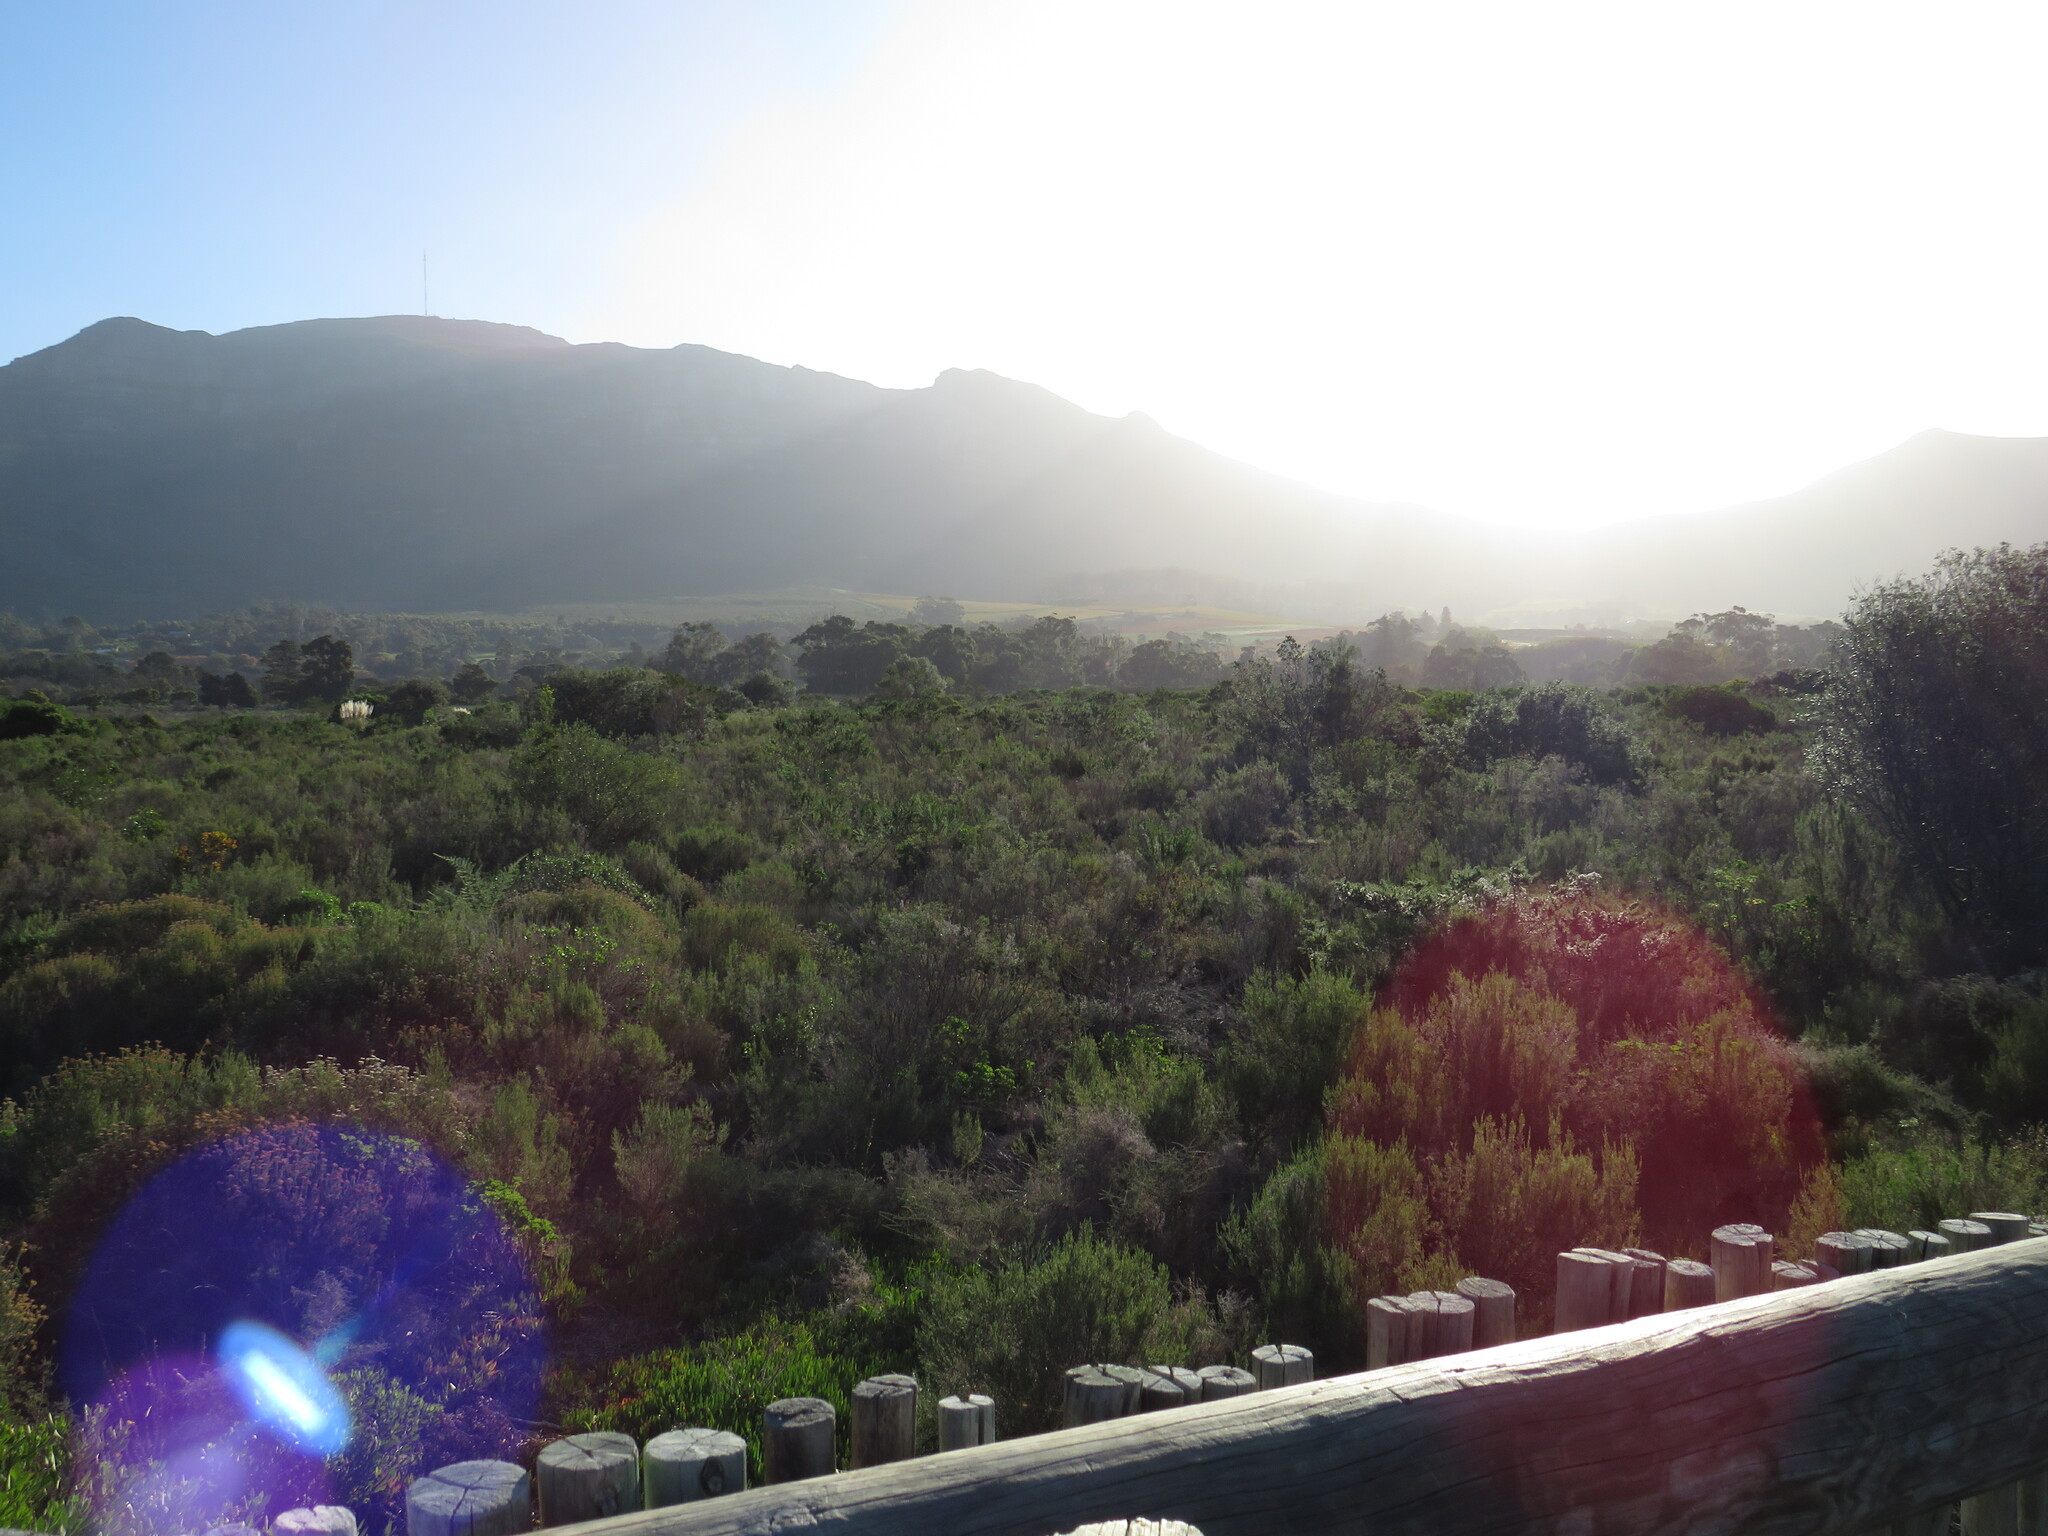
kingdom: Plantae
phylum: Tracheophyta
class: Magnoliopsida
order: Malvales
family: Thymelaeaceae
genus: Passerina
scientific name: Passerina corymbosa
